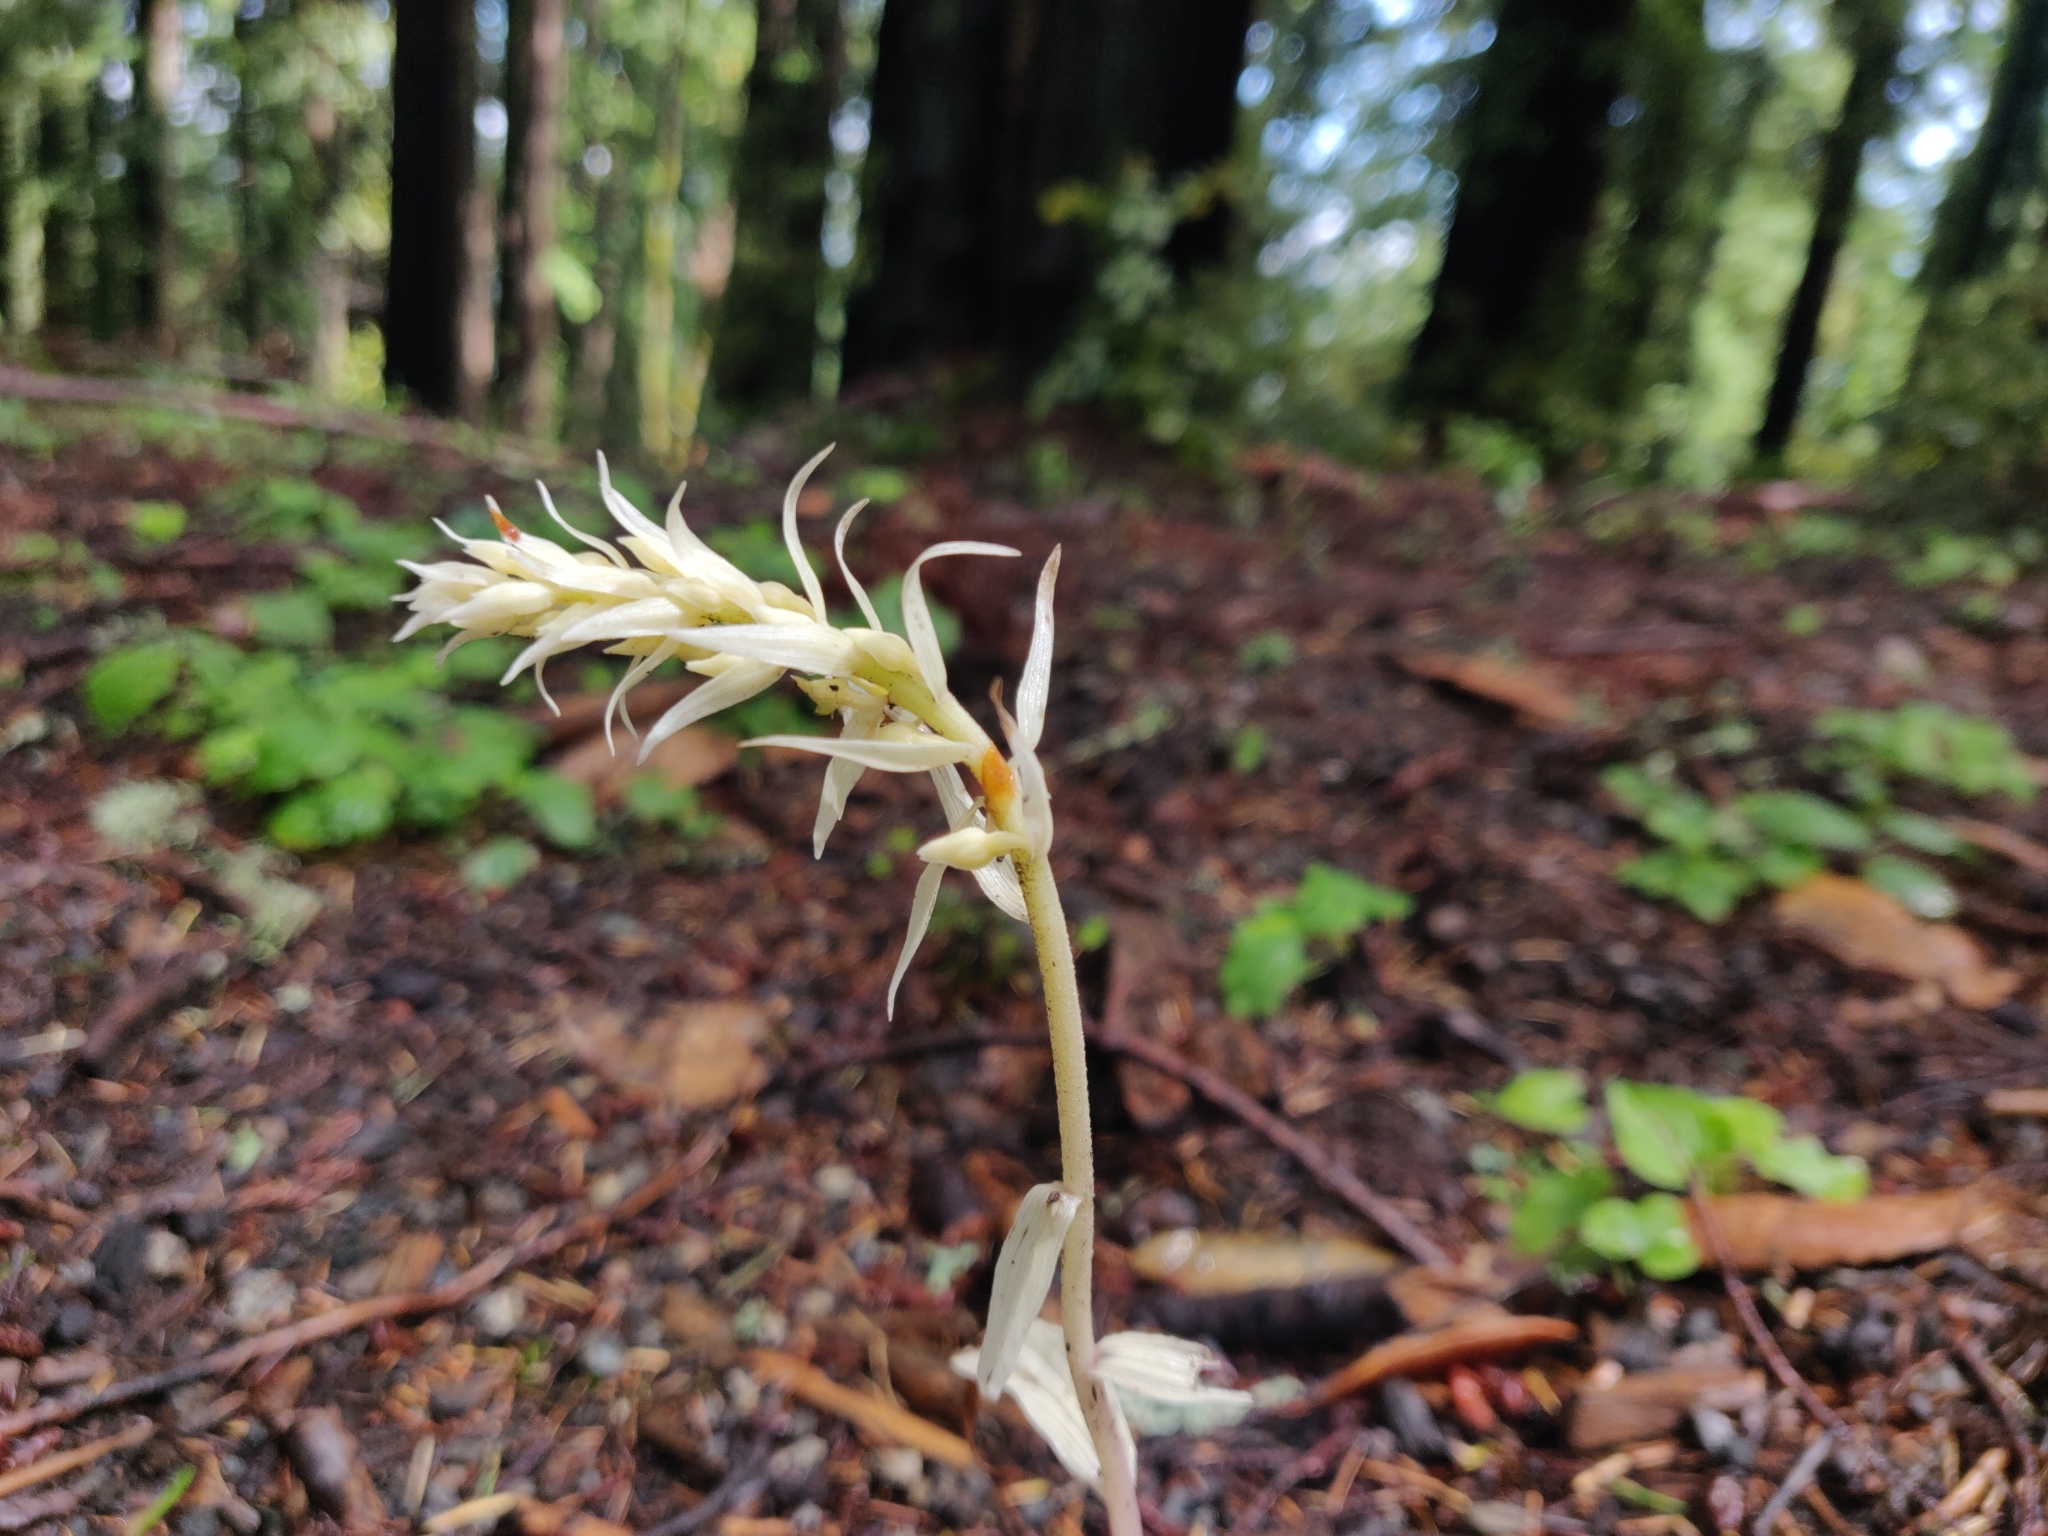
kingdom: Plantae
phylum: Tracheophyta
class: Liliopsida
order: Asparagales
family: Orchidaceae
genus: Epipactis
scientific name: Epipactis helleborine
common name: Broad-leaved helleborine
